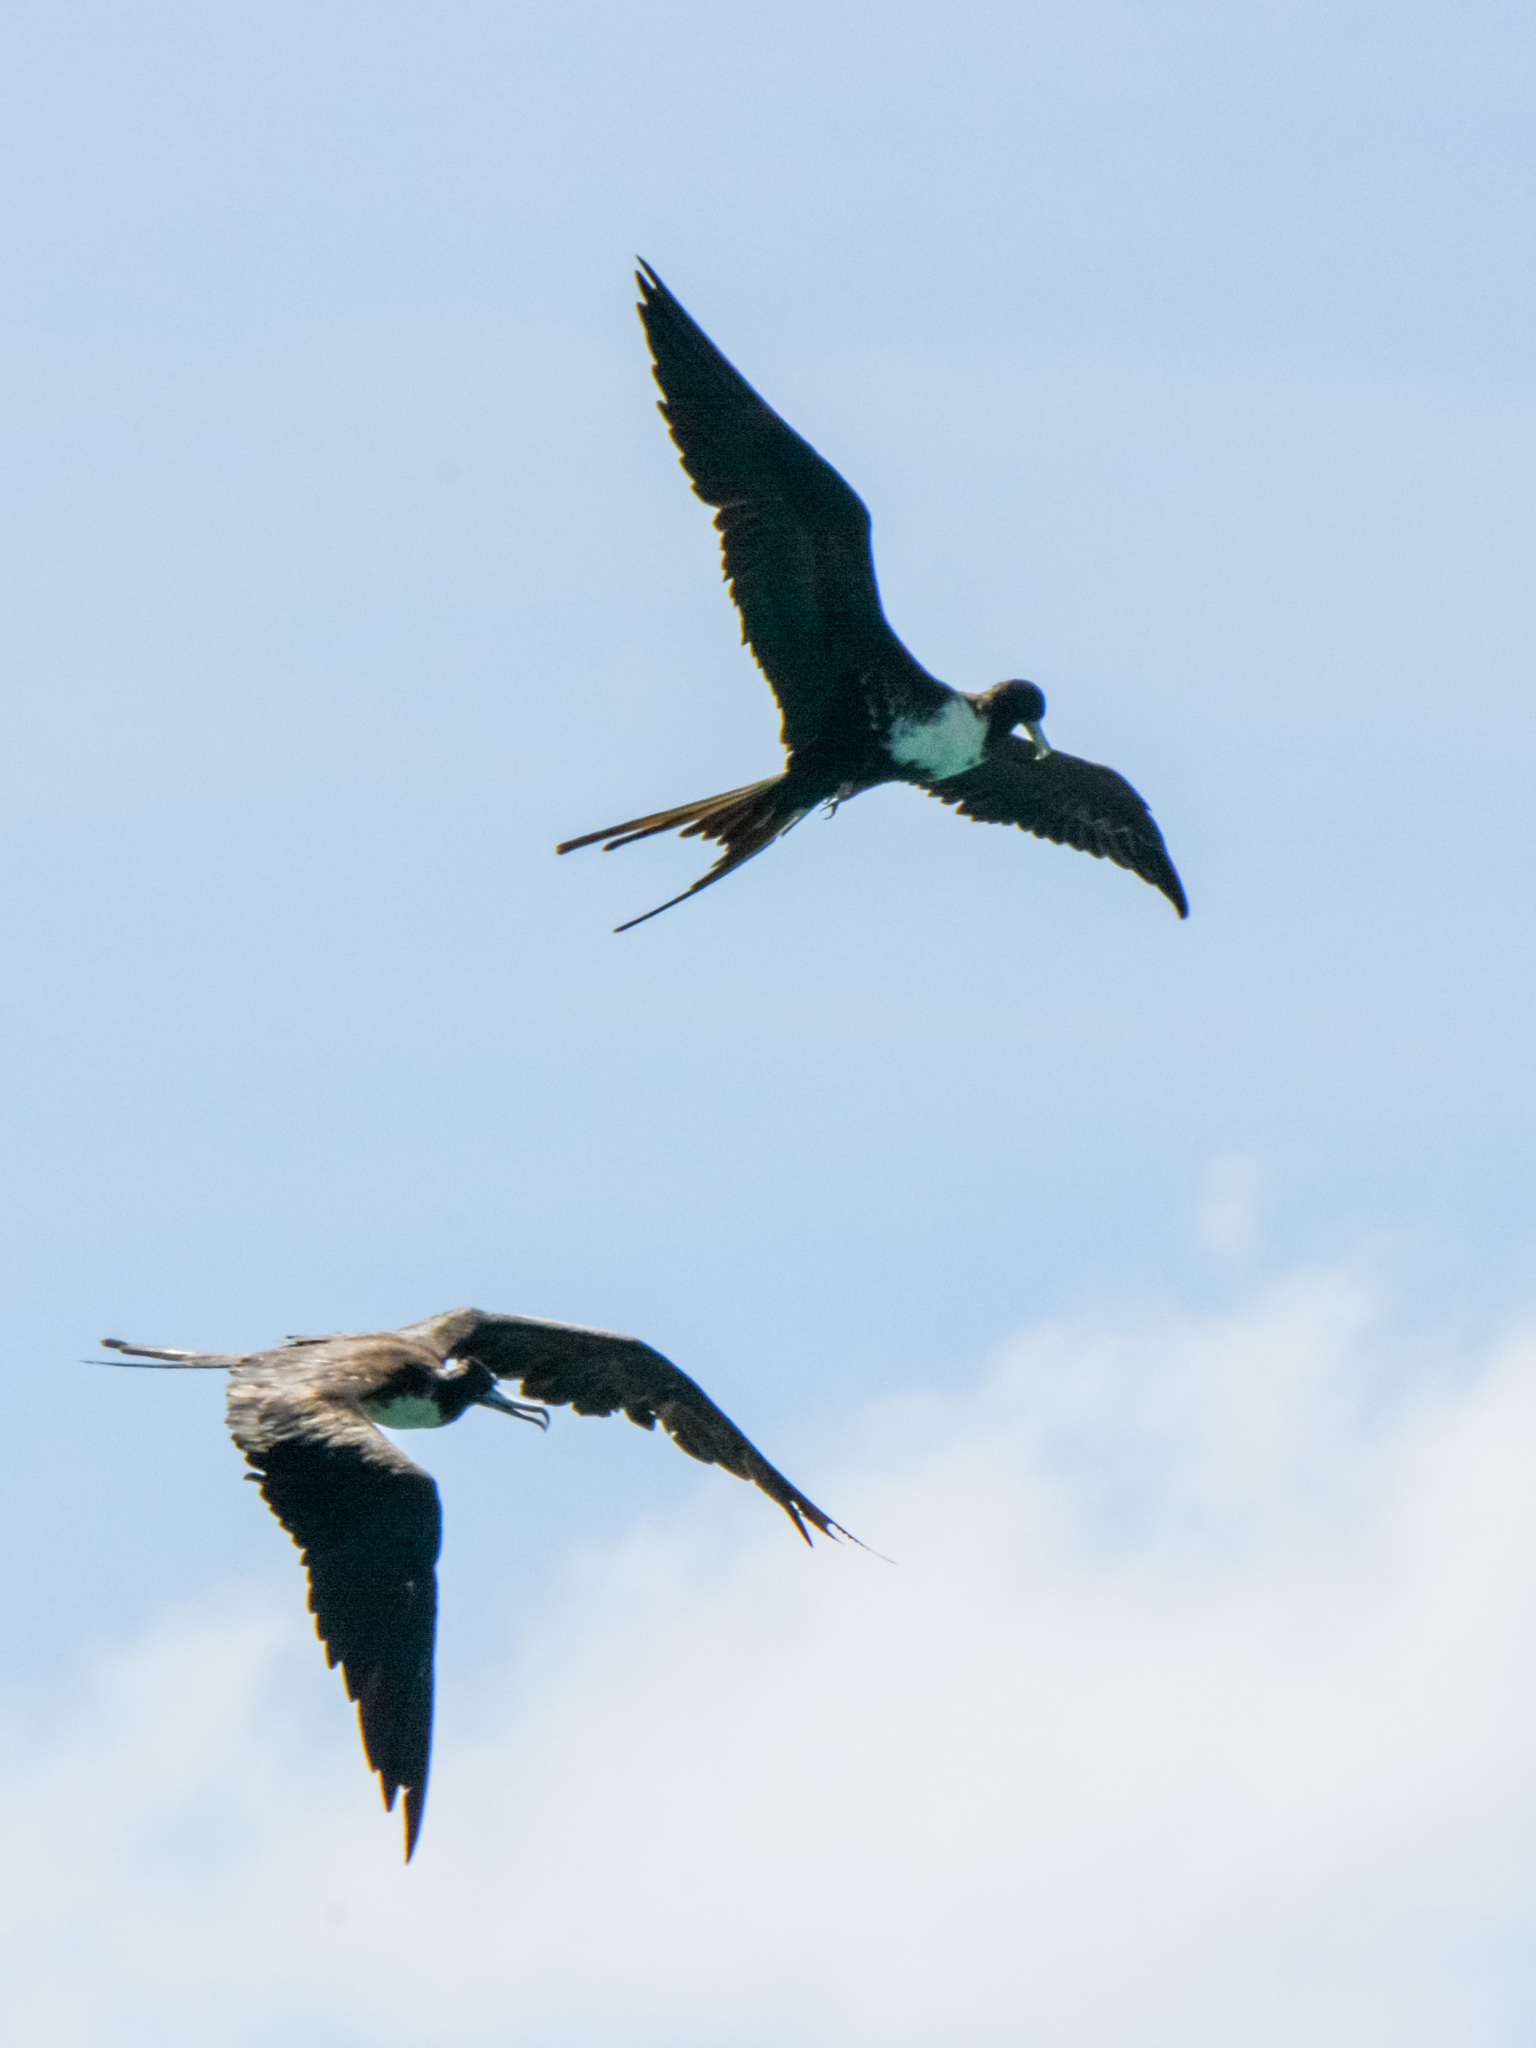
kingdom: Animalia
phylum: Chordata
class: Aves
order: Suliformes
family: Fregatidae
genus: Fregata
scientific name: Fregata magnificens
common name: Magnificent frigatebird
